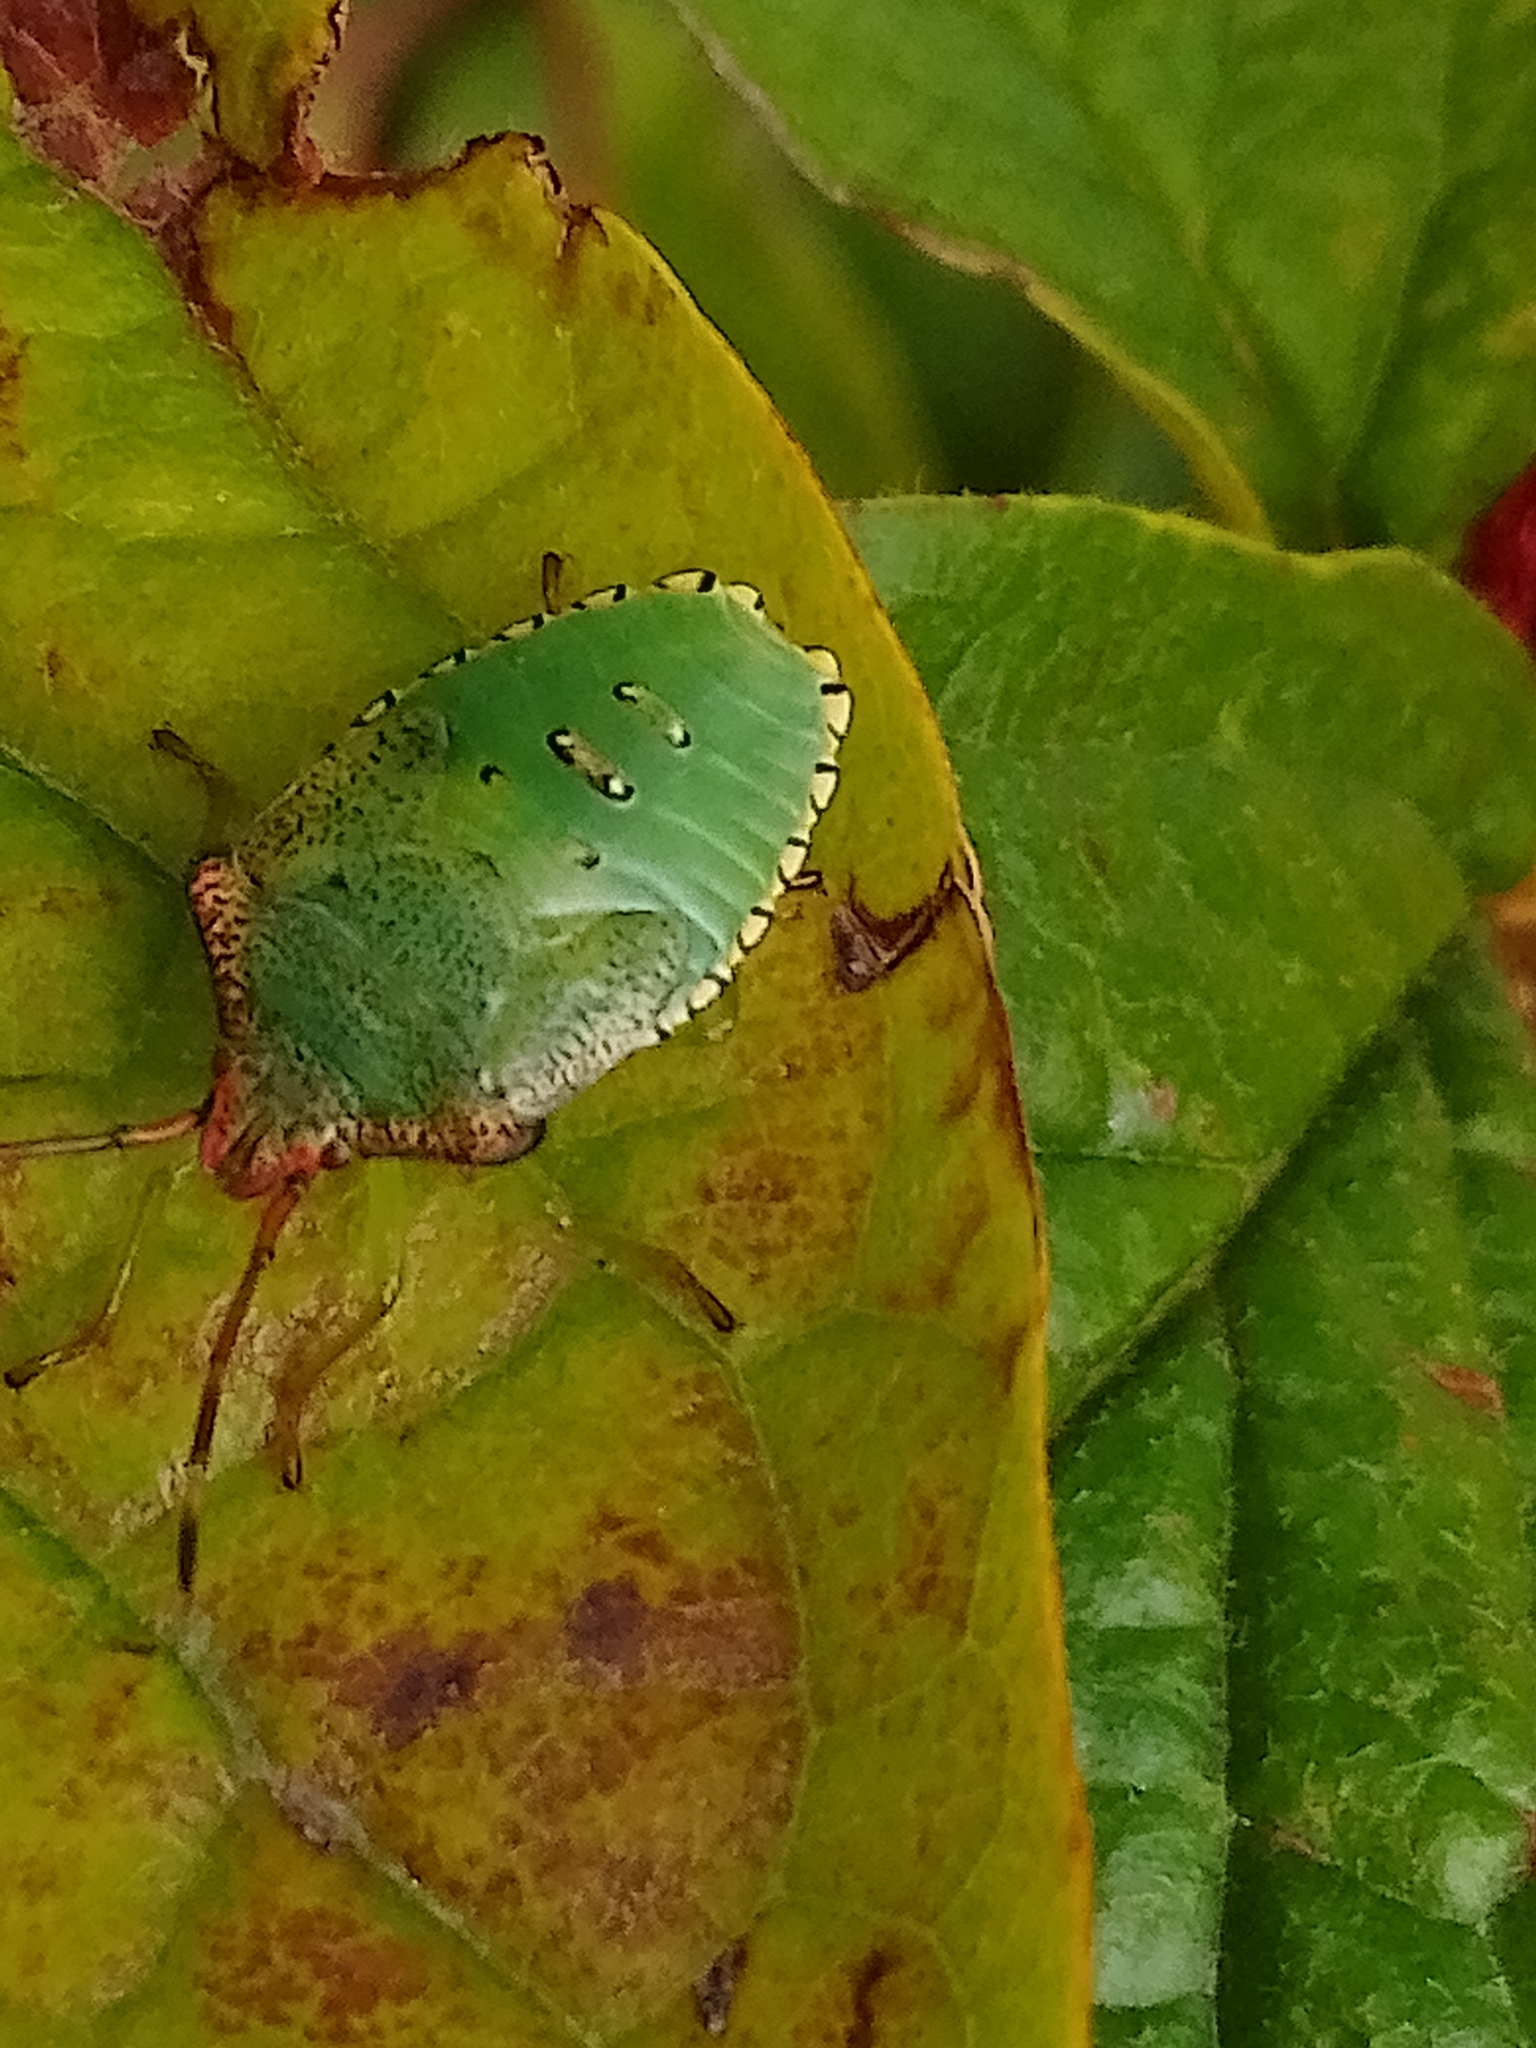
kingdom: Animalia
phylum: Arthropoda
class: Insecta
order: Hemiptera
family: Acanthosomatidae
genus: Acanthosoma
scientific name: Acanthosoma haemorrhoidale
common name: Hawthorn shieldbug
